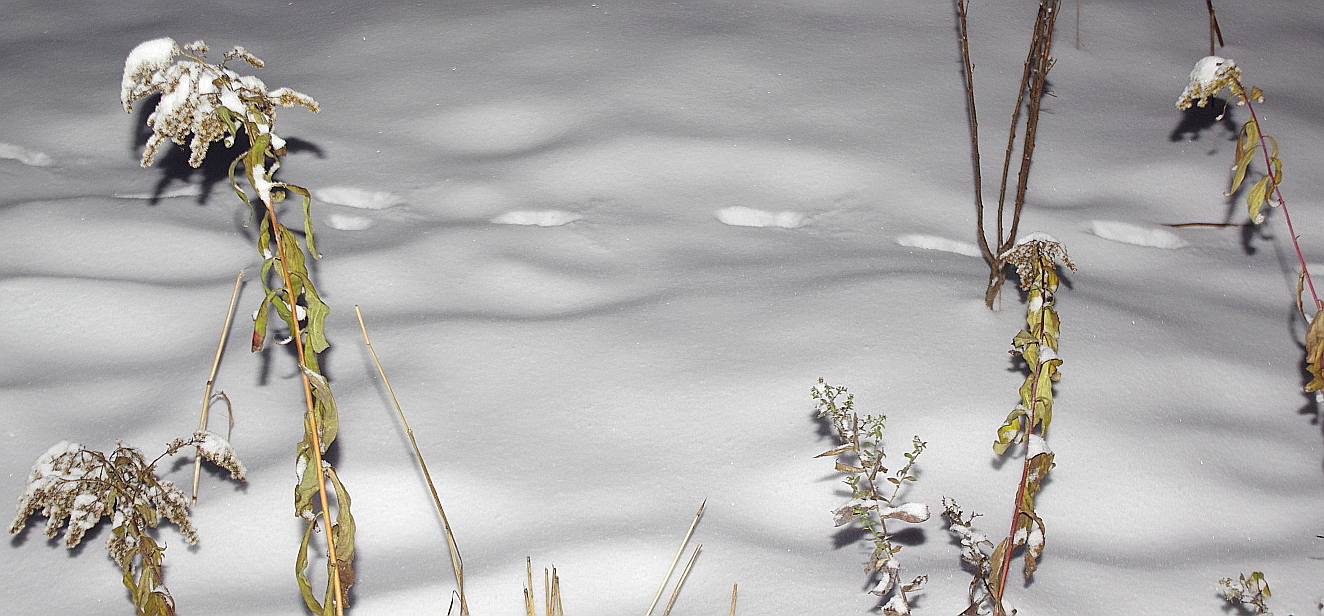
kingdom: Plantae
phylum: Tracheophyta
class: Magnoliopsida
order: Asterales
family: Asteraceae
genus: Solidago
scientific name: Solidago canadensis
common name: Canada goldenrod
